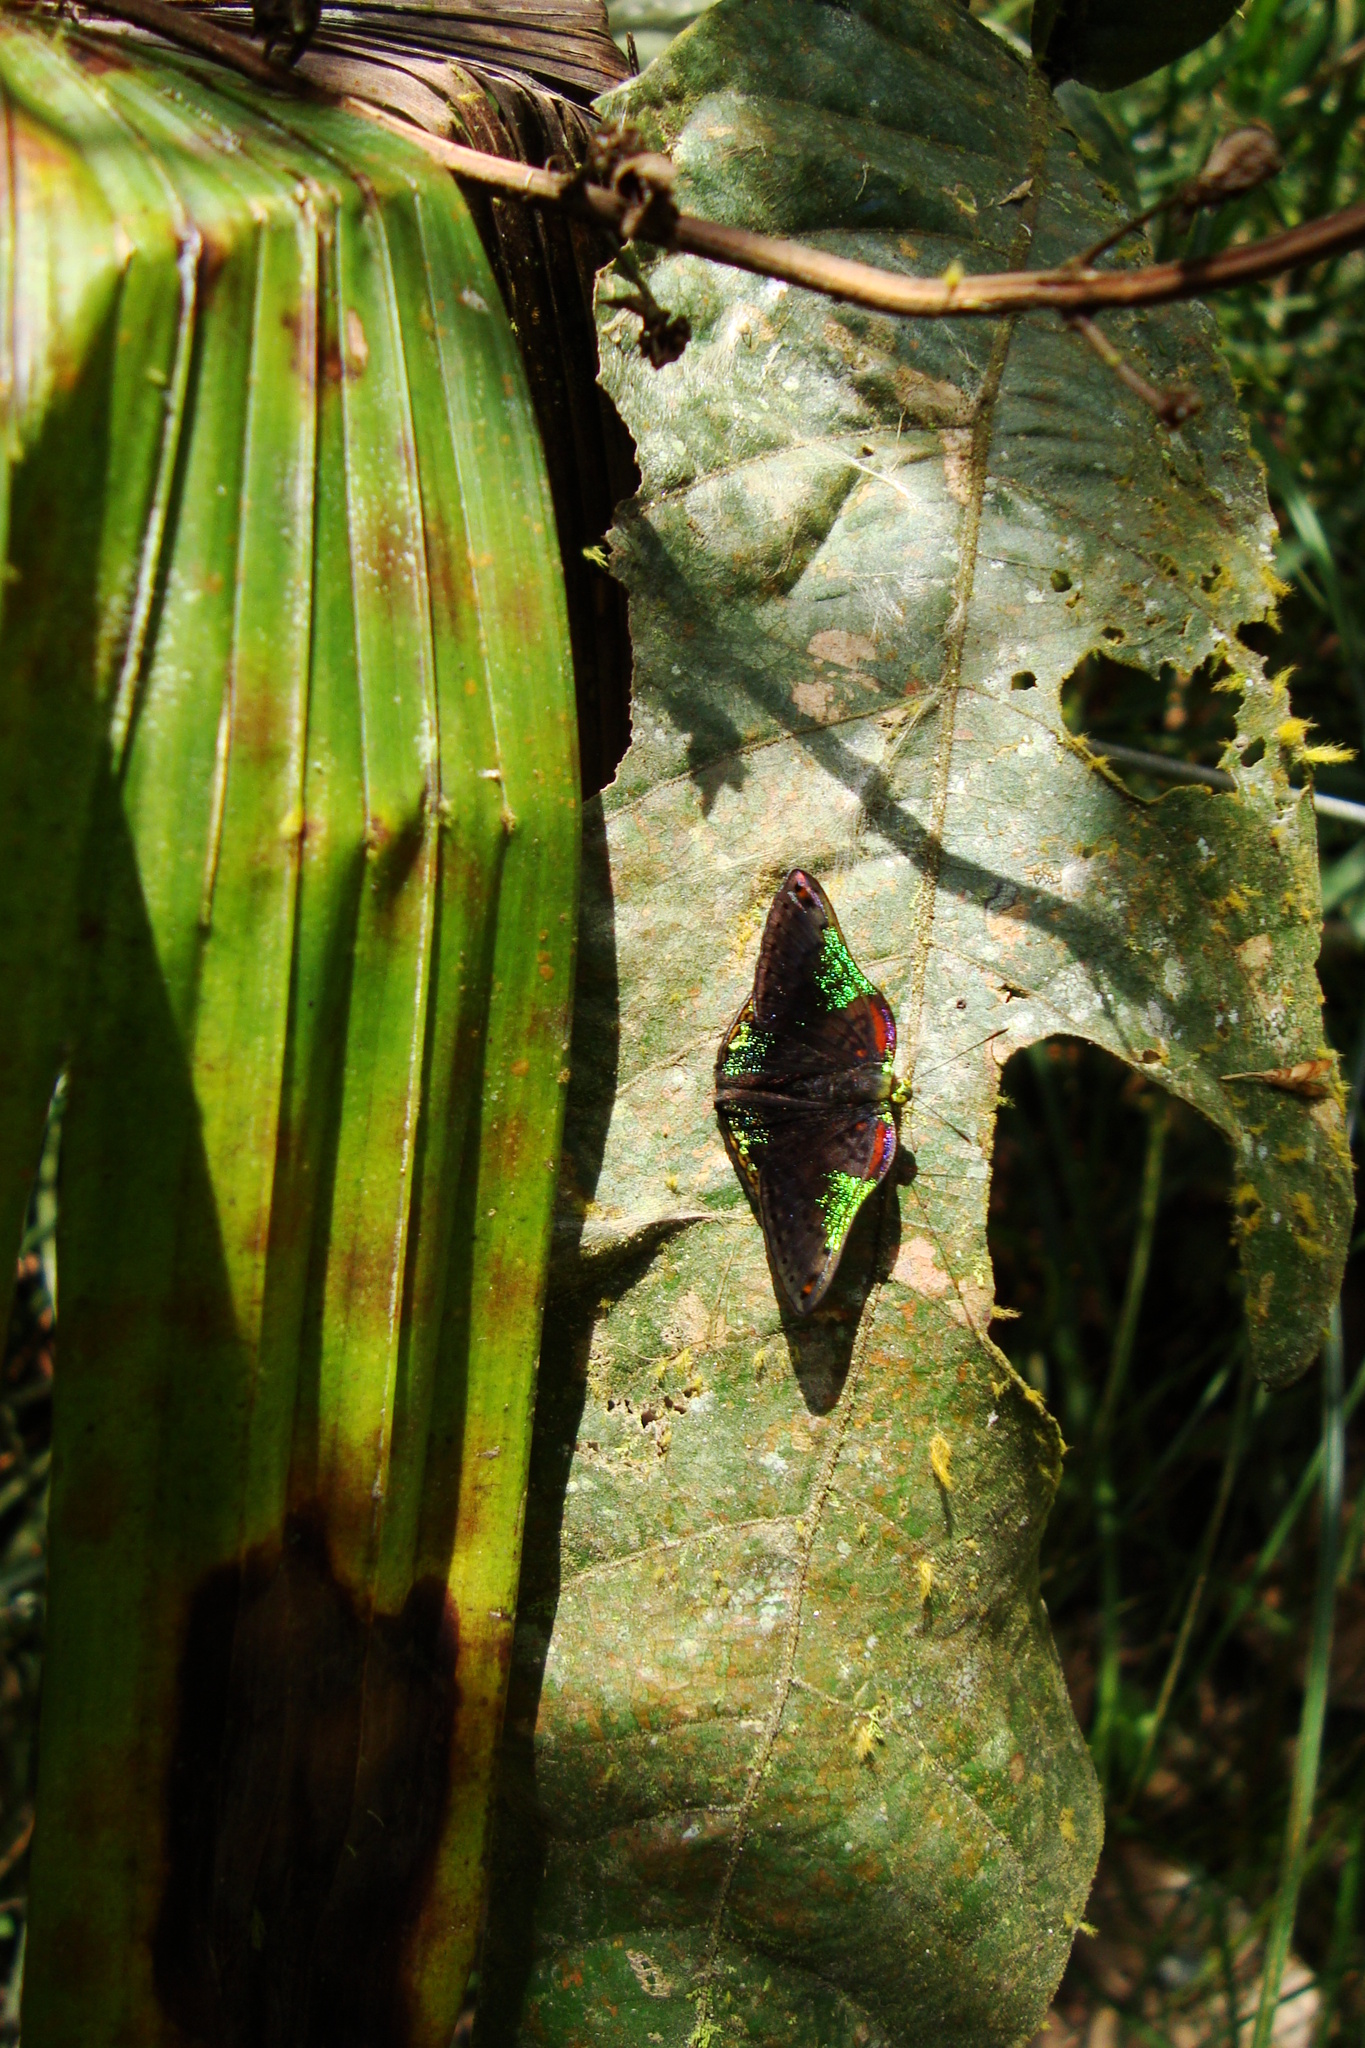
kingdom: Animalia
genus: Caria
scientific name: Caria trochilus
